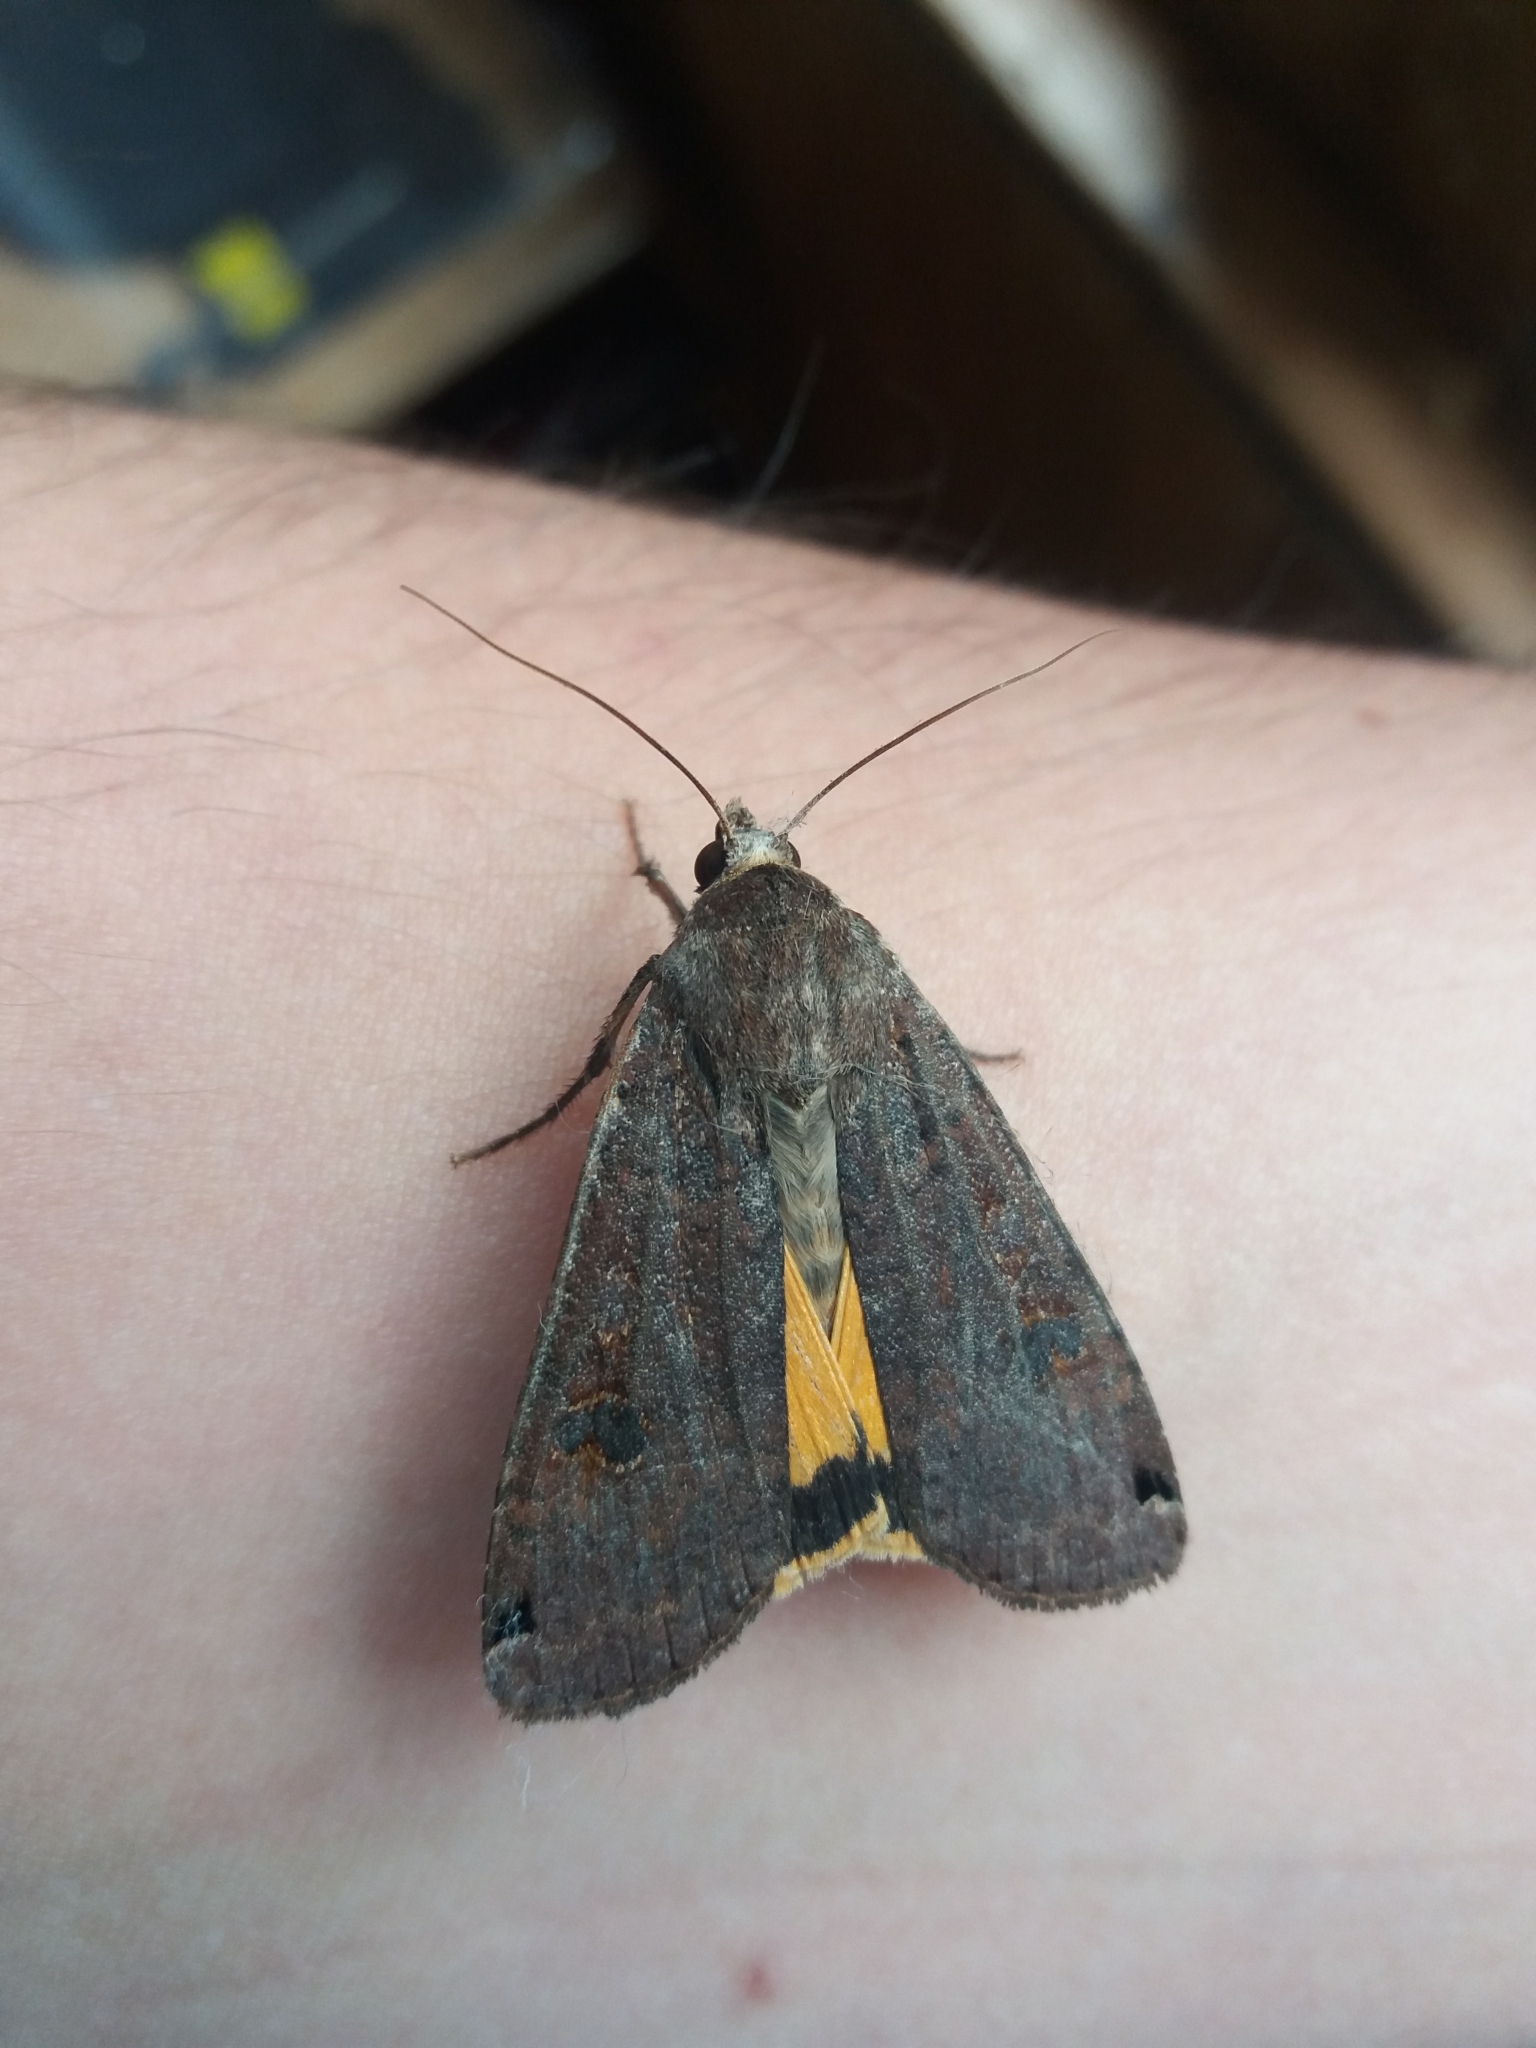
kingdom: Animalia
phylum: Arthropoda
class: Insecta
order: Lepidoptera
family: Noctuidae
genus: Noctua
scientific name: Noctua pronuba
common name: Large yellow underwing
